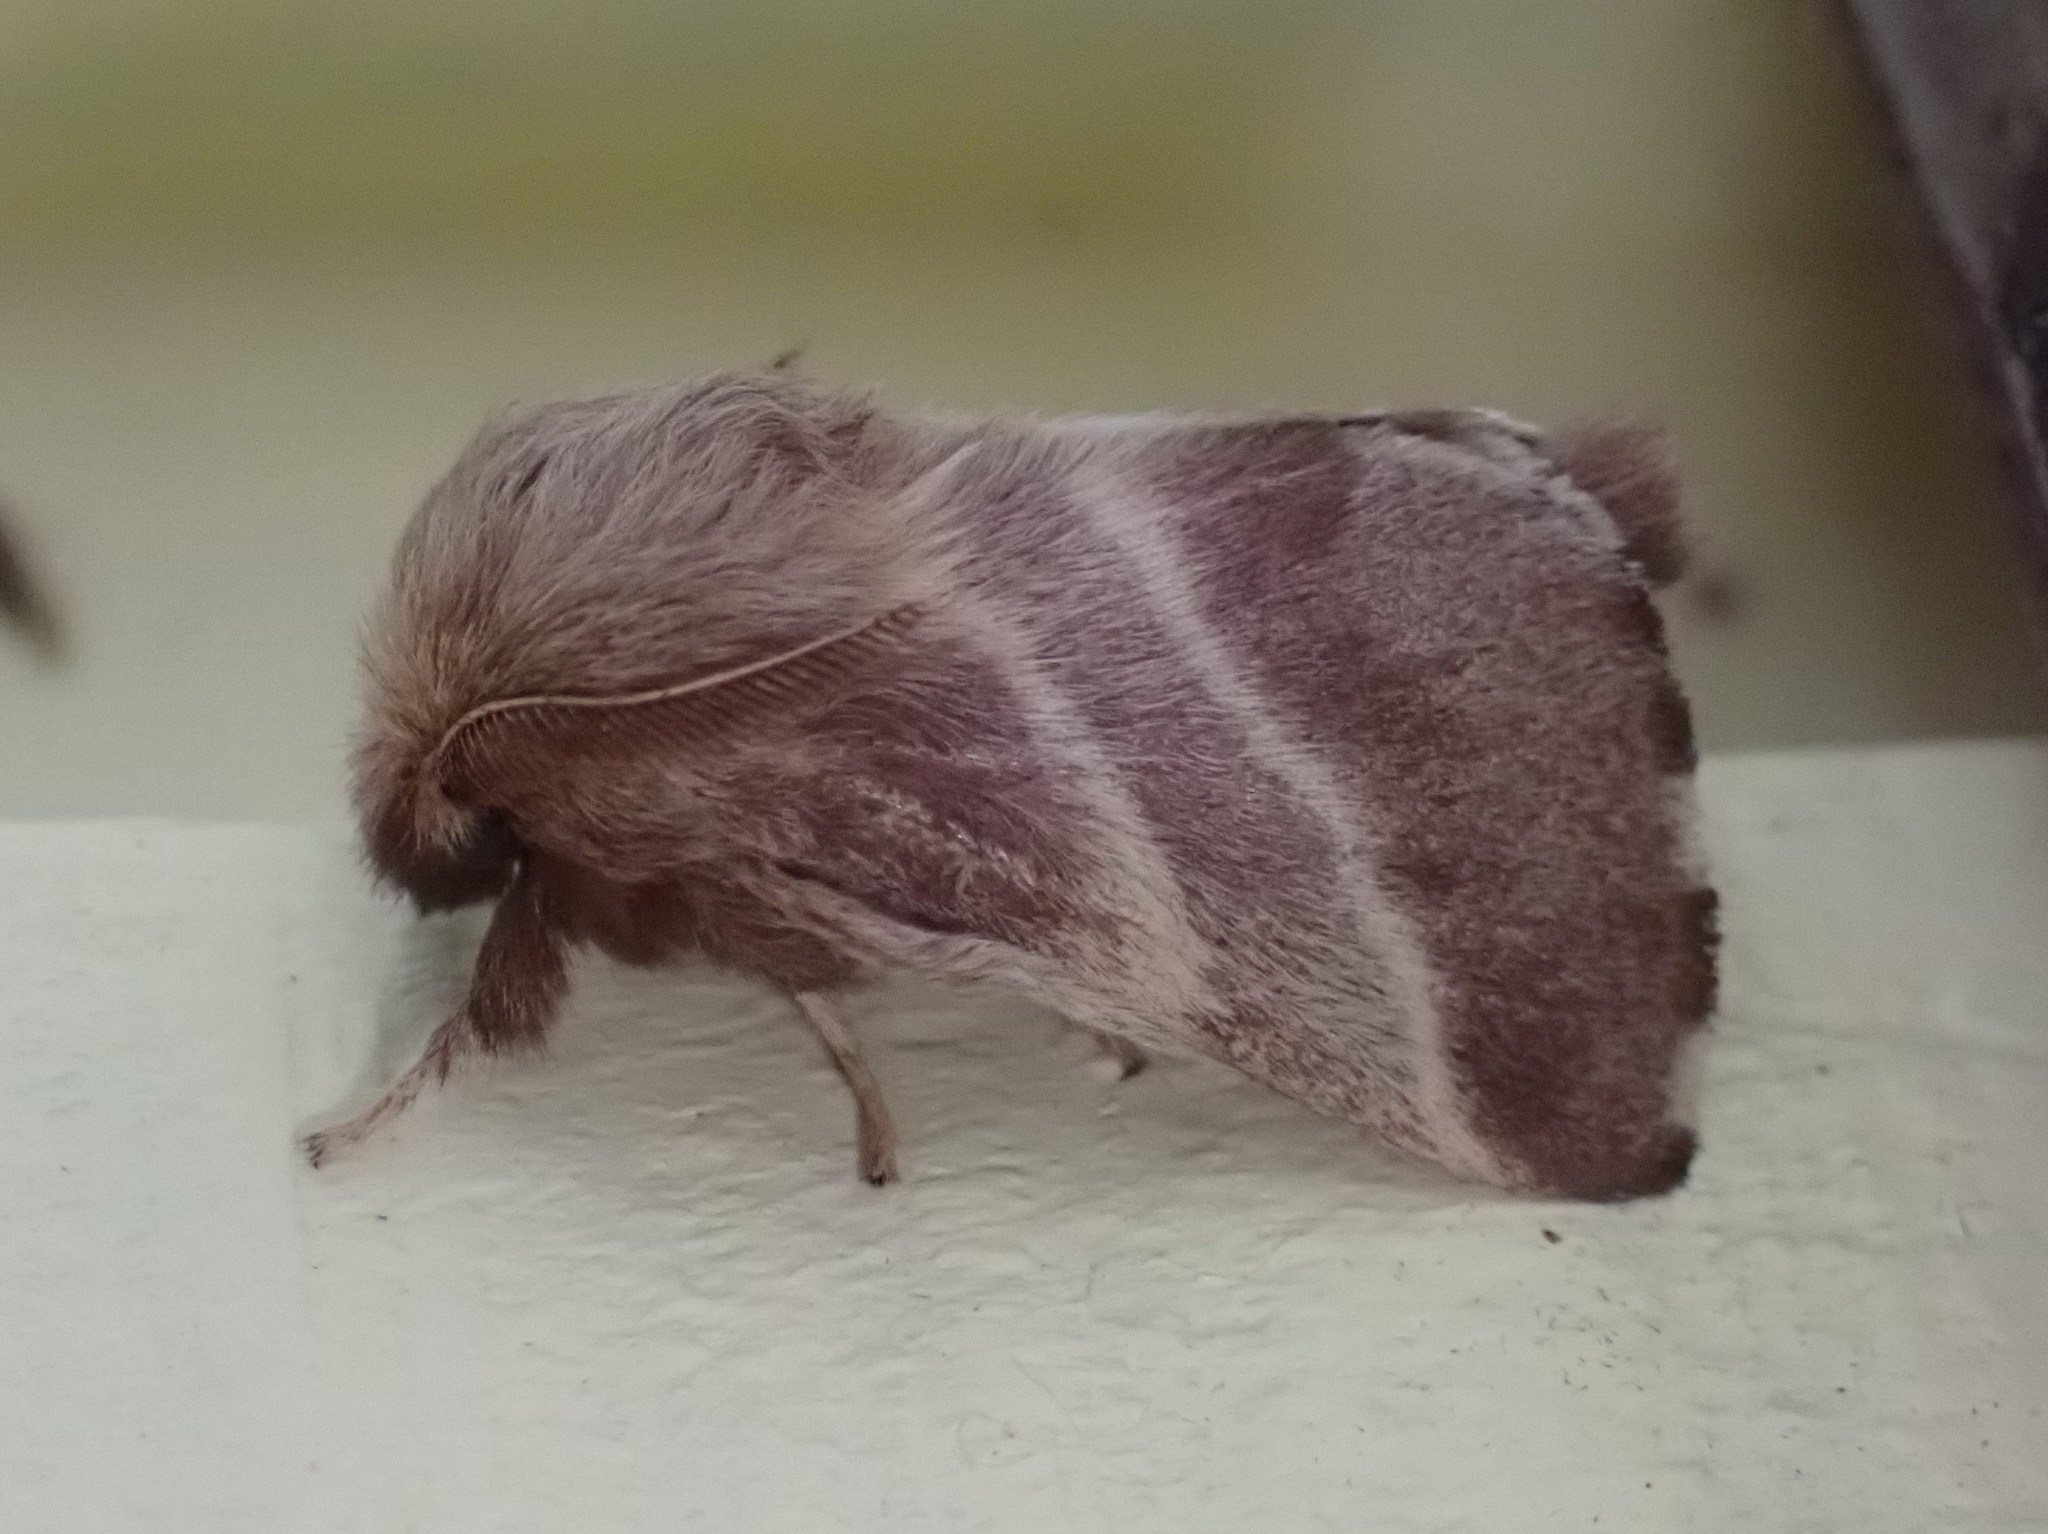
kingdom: Animalia
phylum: Arthropoda
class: Insecta
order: Lepidoptera
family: Lasiocampidae
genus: Malacosoma
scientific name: Malacosoma americana
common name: Eastern tent caterpillar moth
